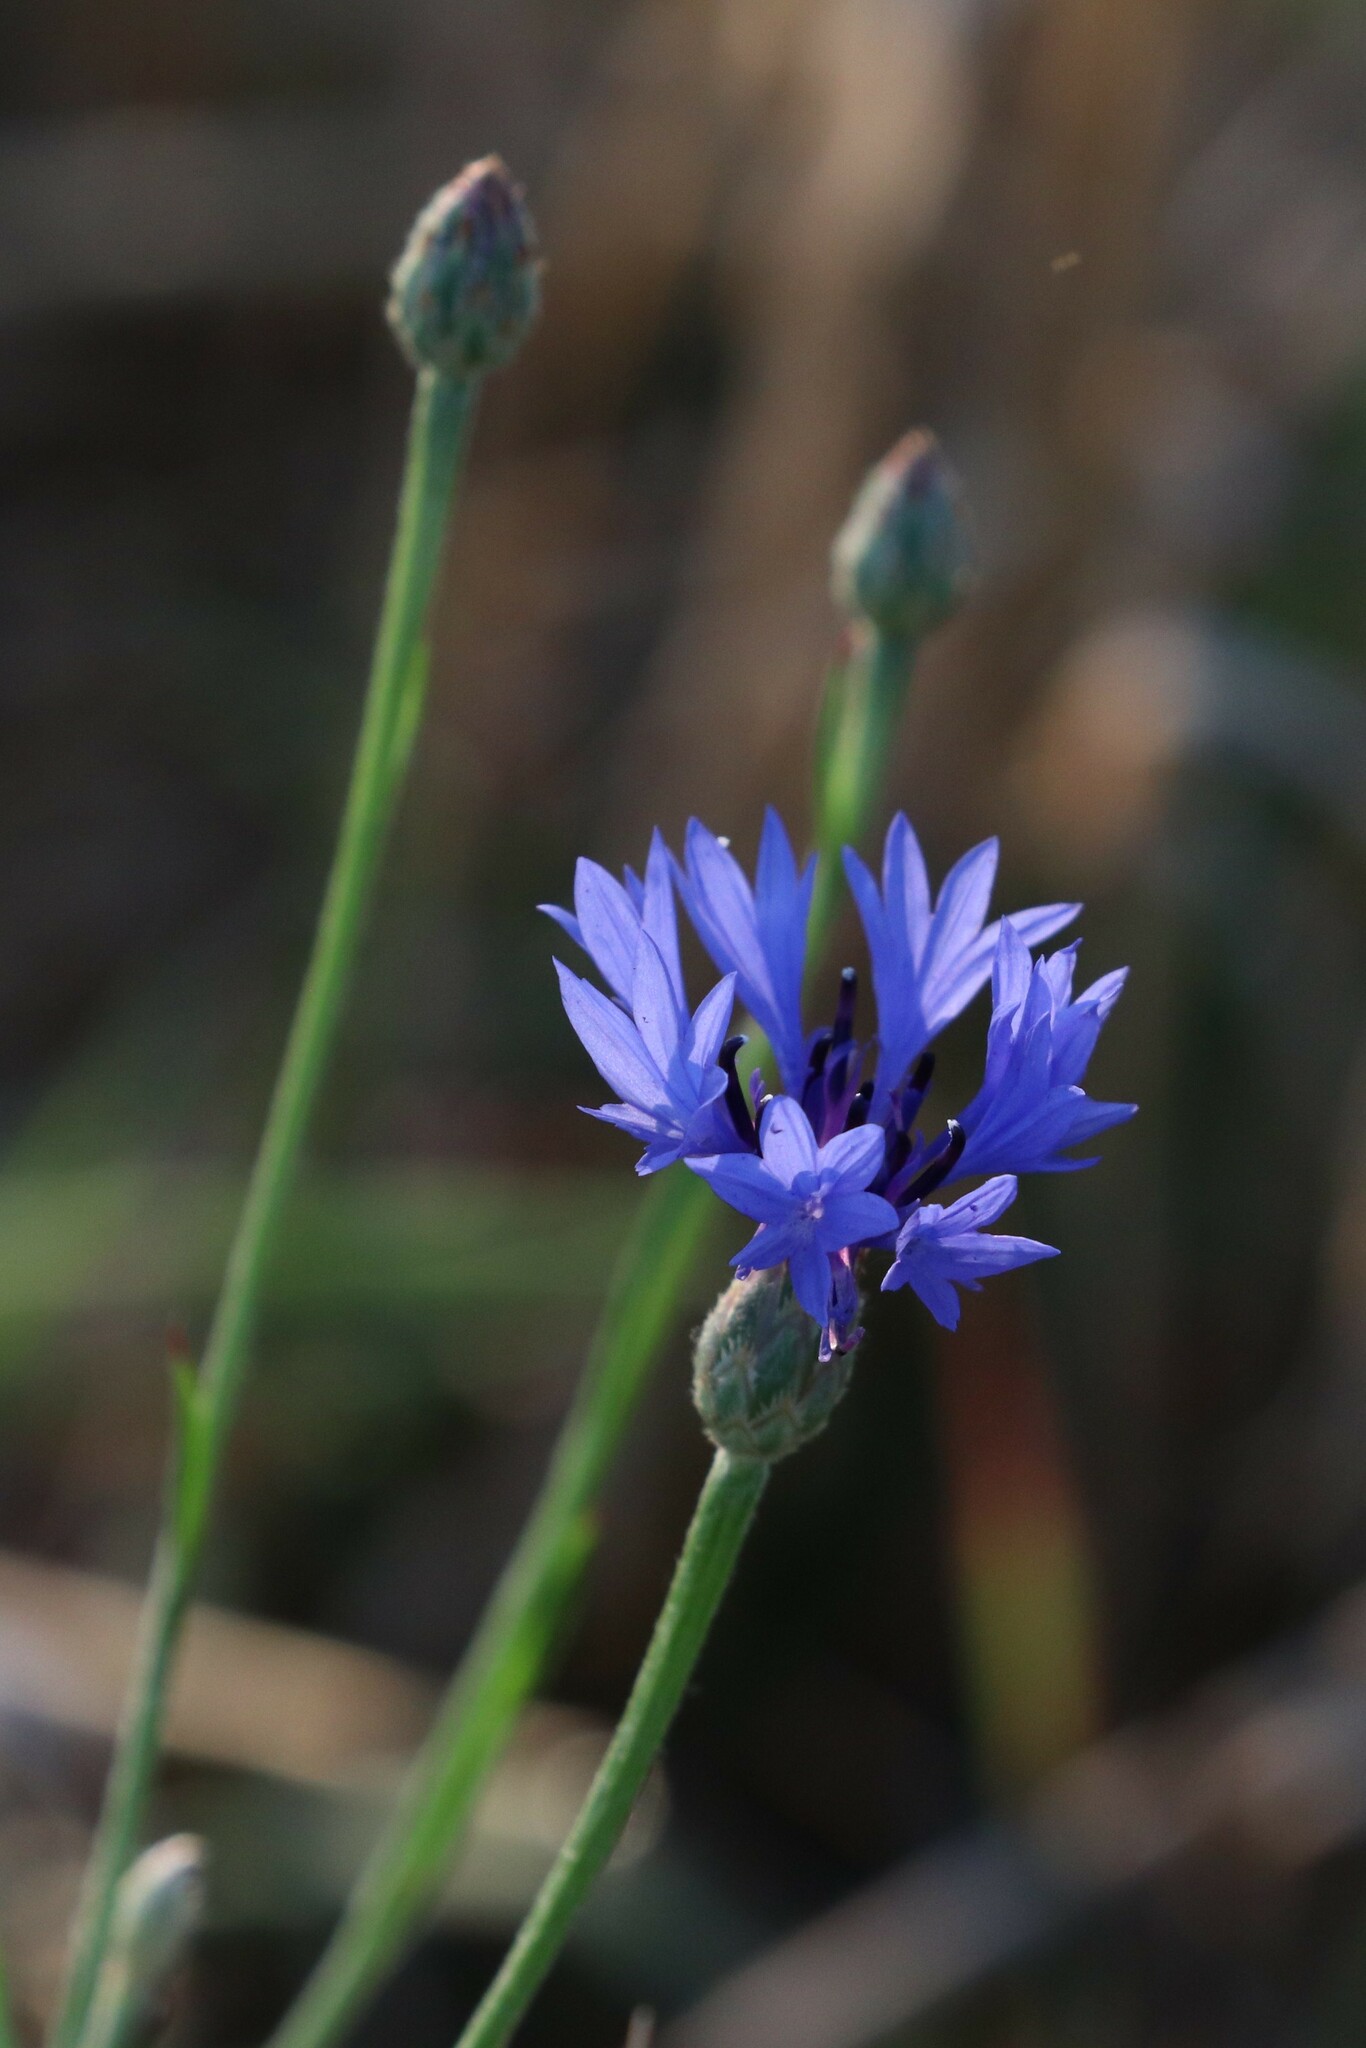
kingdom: Plantae
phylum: Tracheophyta
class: Magnoliopsida
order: Asterales
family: Asteraceae
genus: Centaurea
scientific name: Centaurea cyanus
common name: Cornflower
